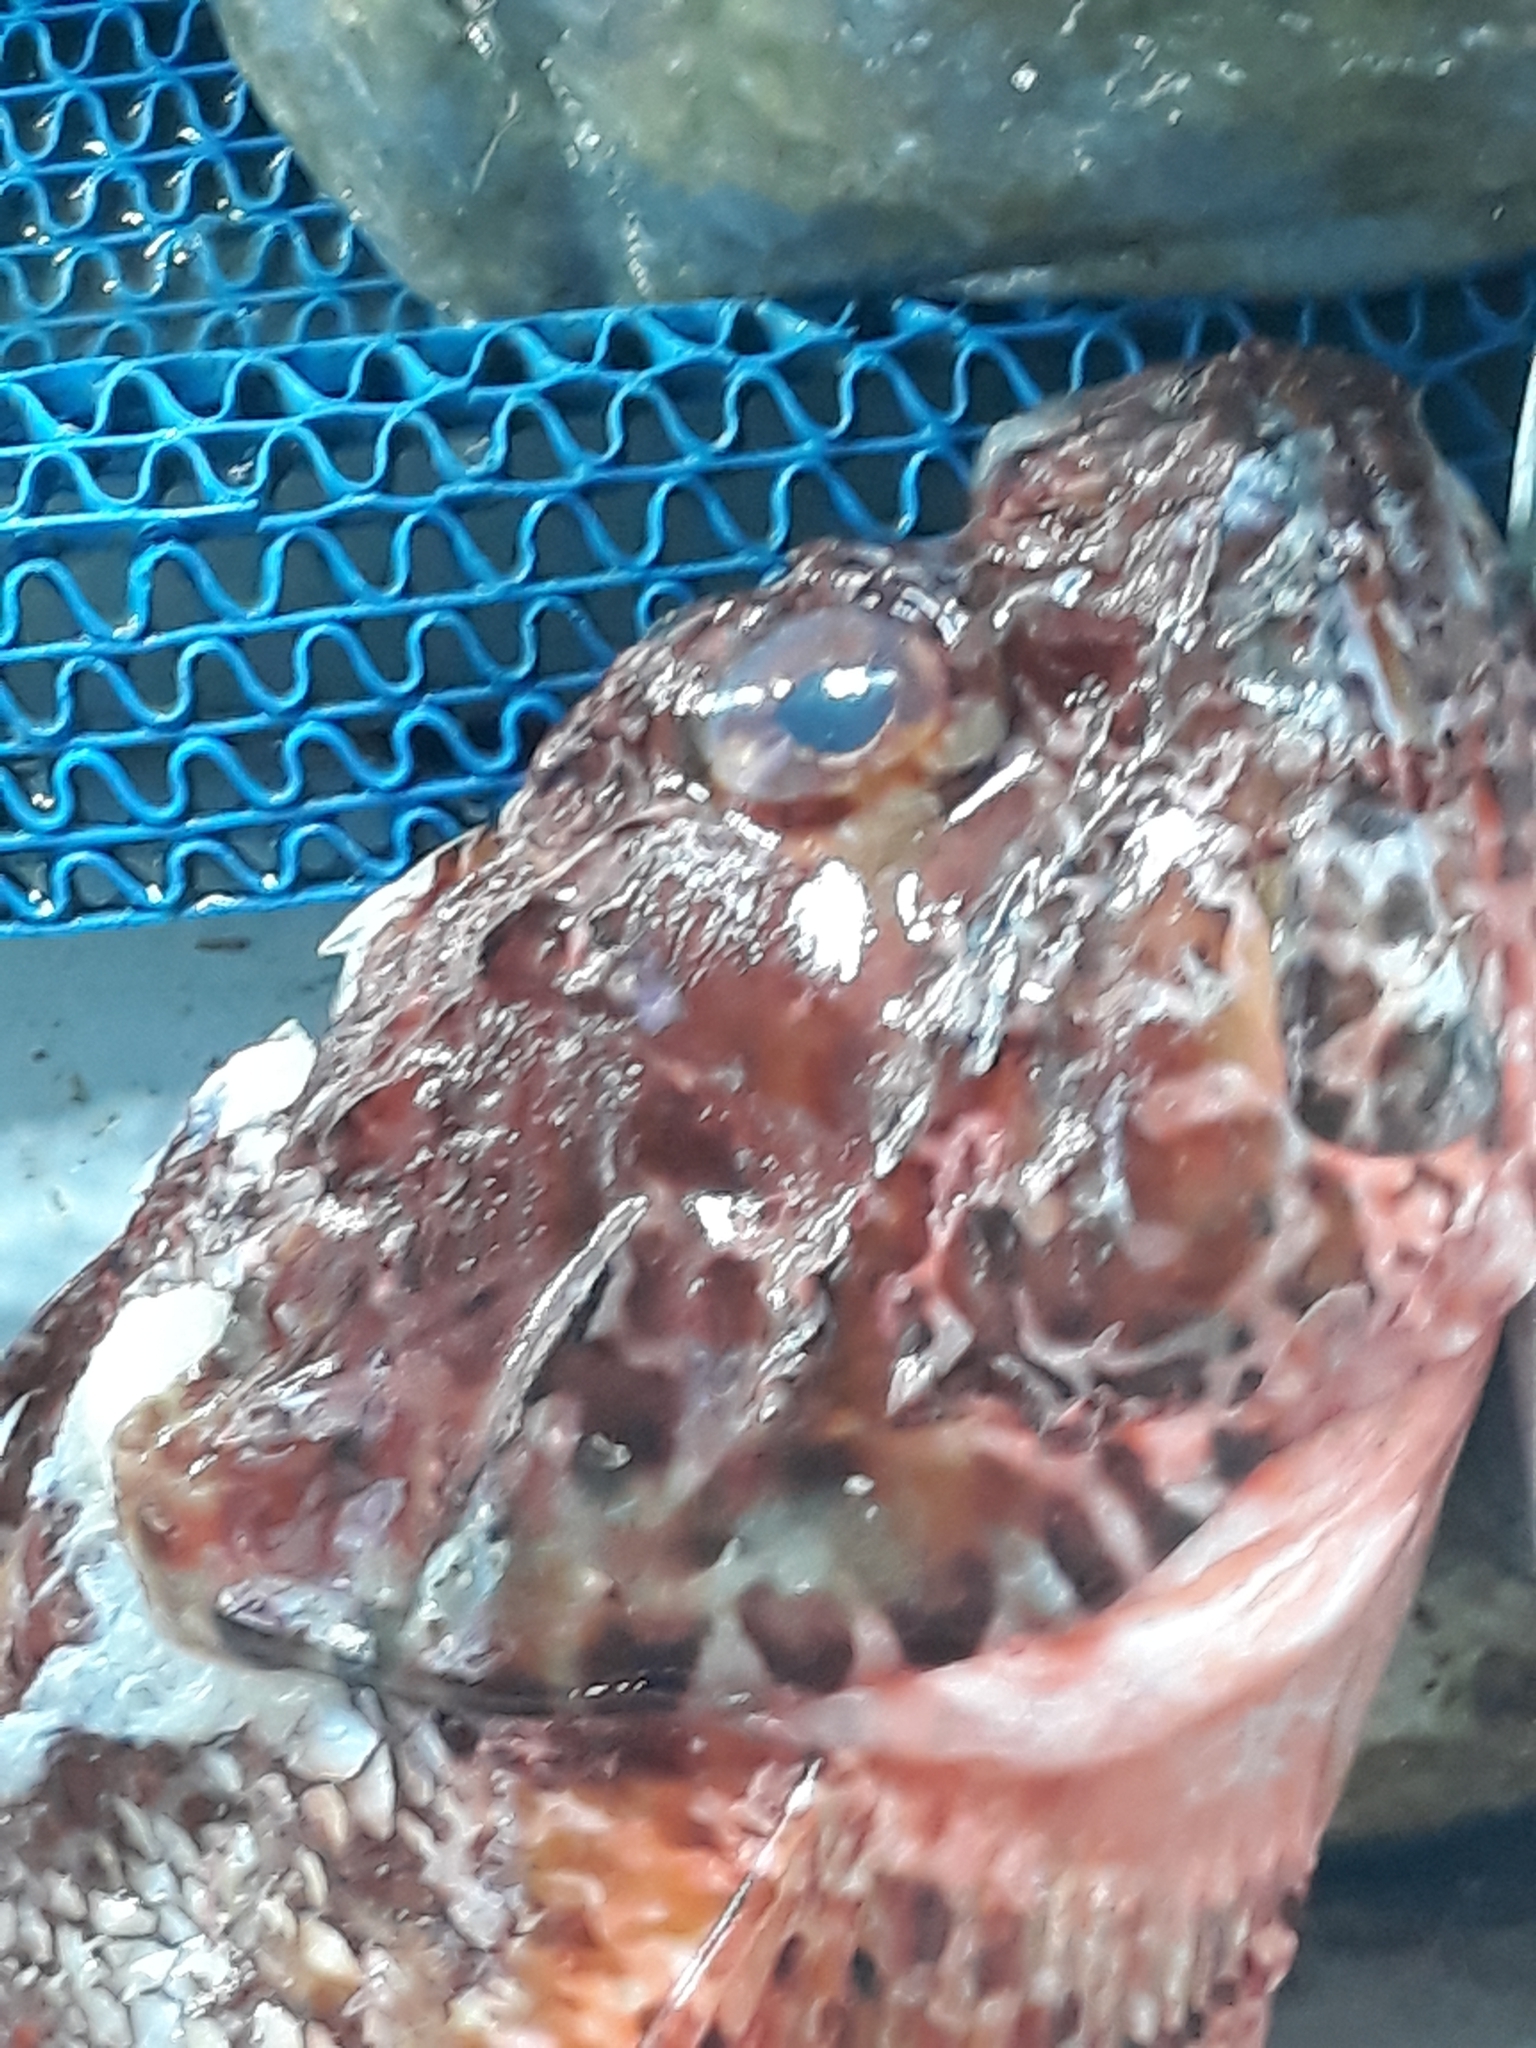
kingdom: Animalia
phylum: Chordata
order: Scorpaeniformes
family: Scorpaenidae
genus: Scorpaena
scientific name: Scorpaena scrofa
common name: Red scorpionfish
